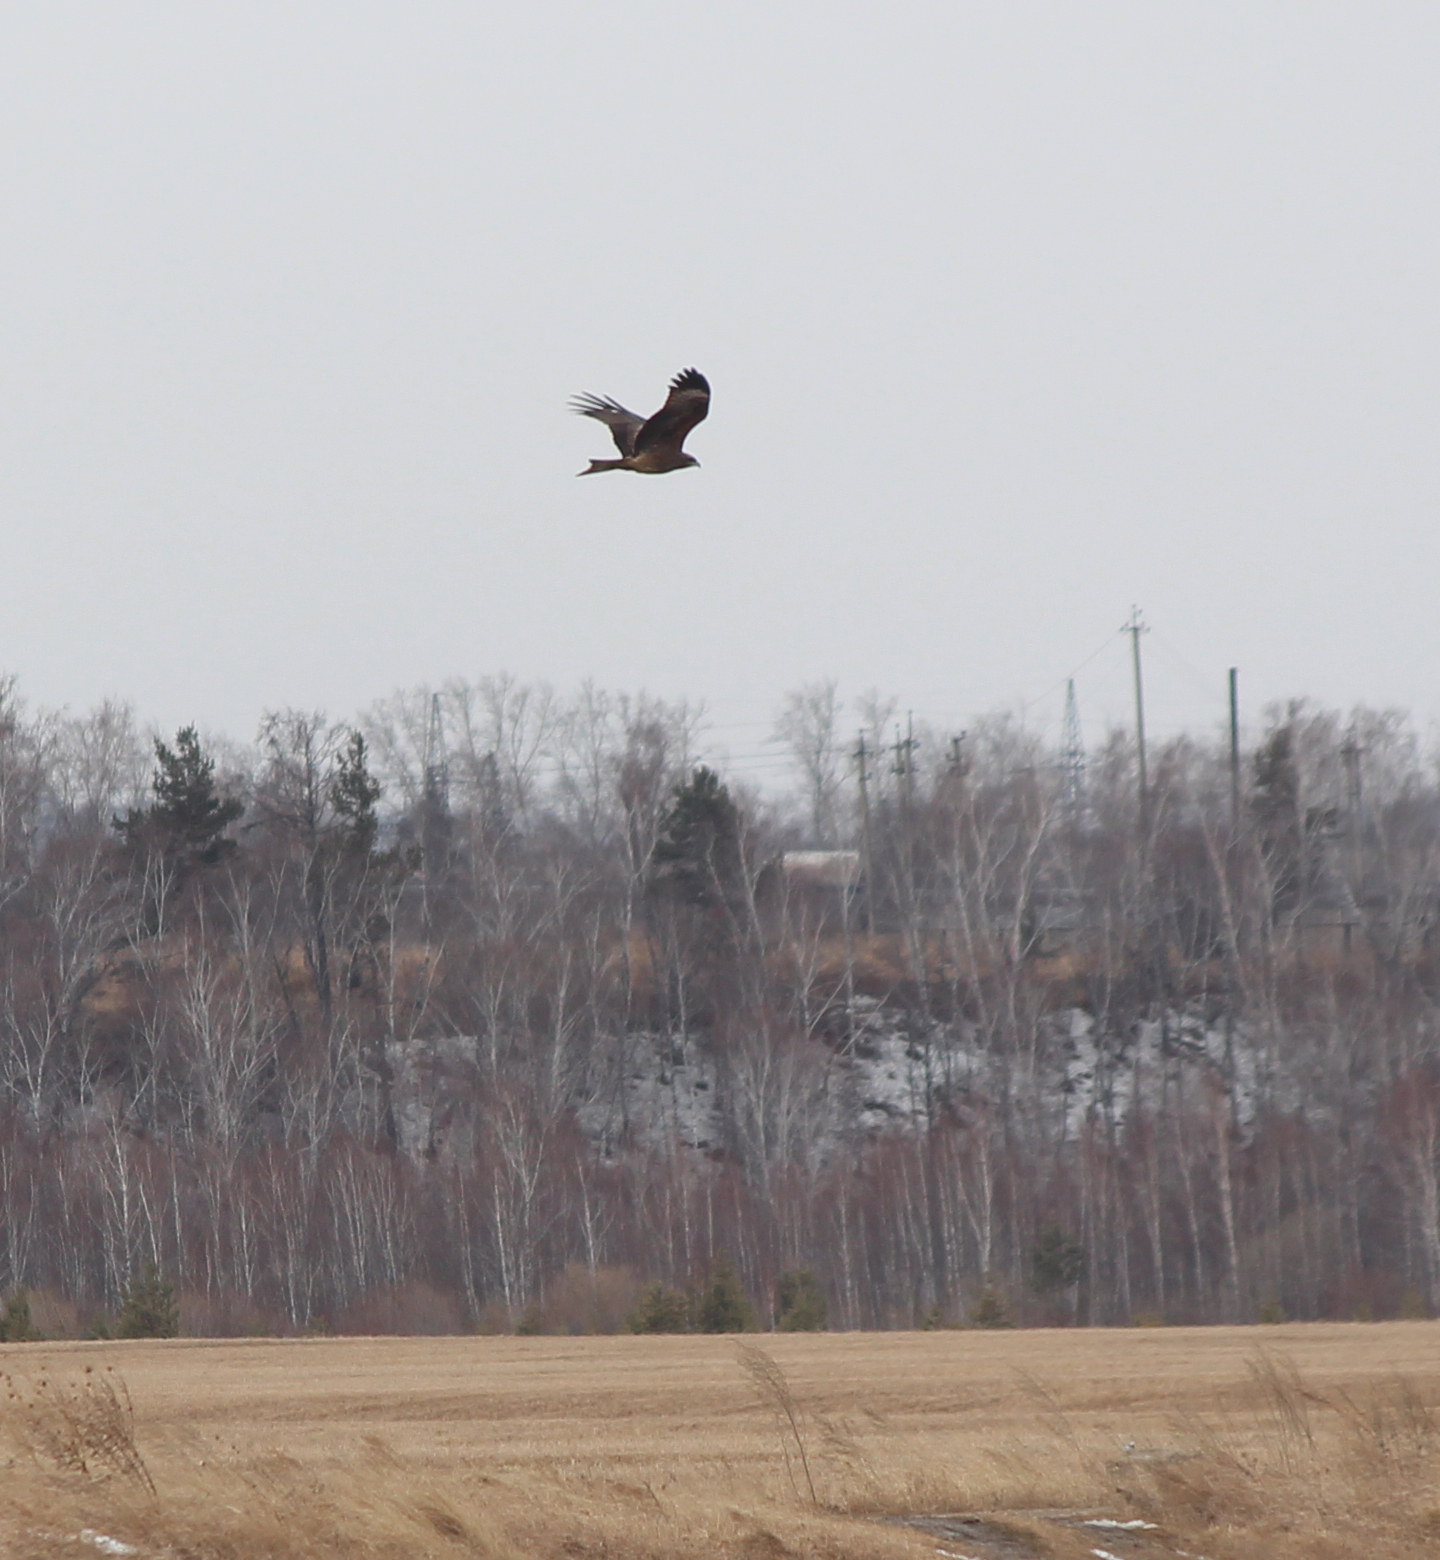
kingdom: Animalia
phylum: Chordata
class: Aves
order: Accipitriformes
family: Accipitridae
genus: Milvus
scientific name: Milvus migrans
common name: Black kite
